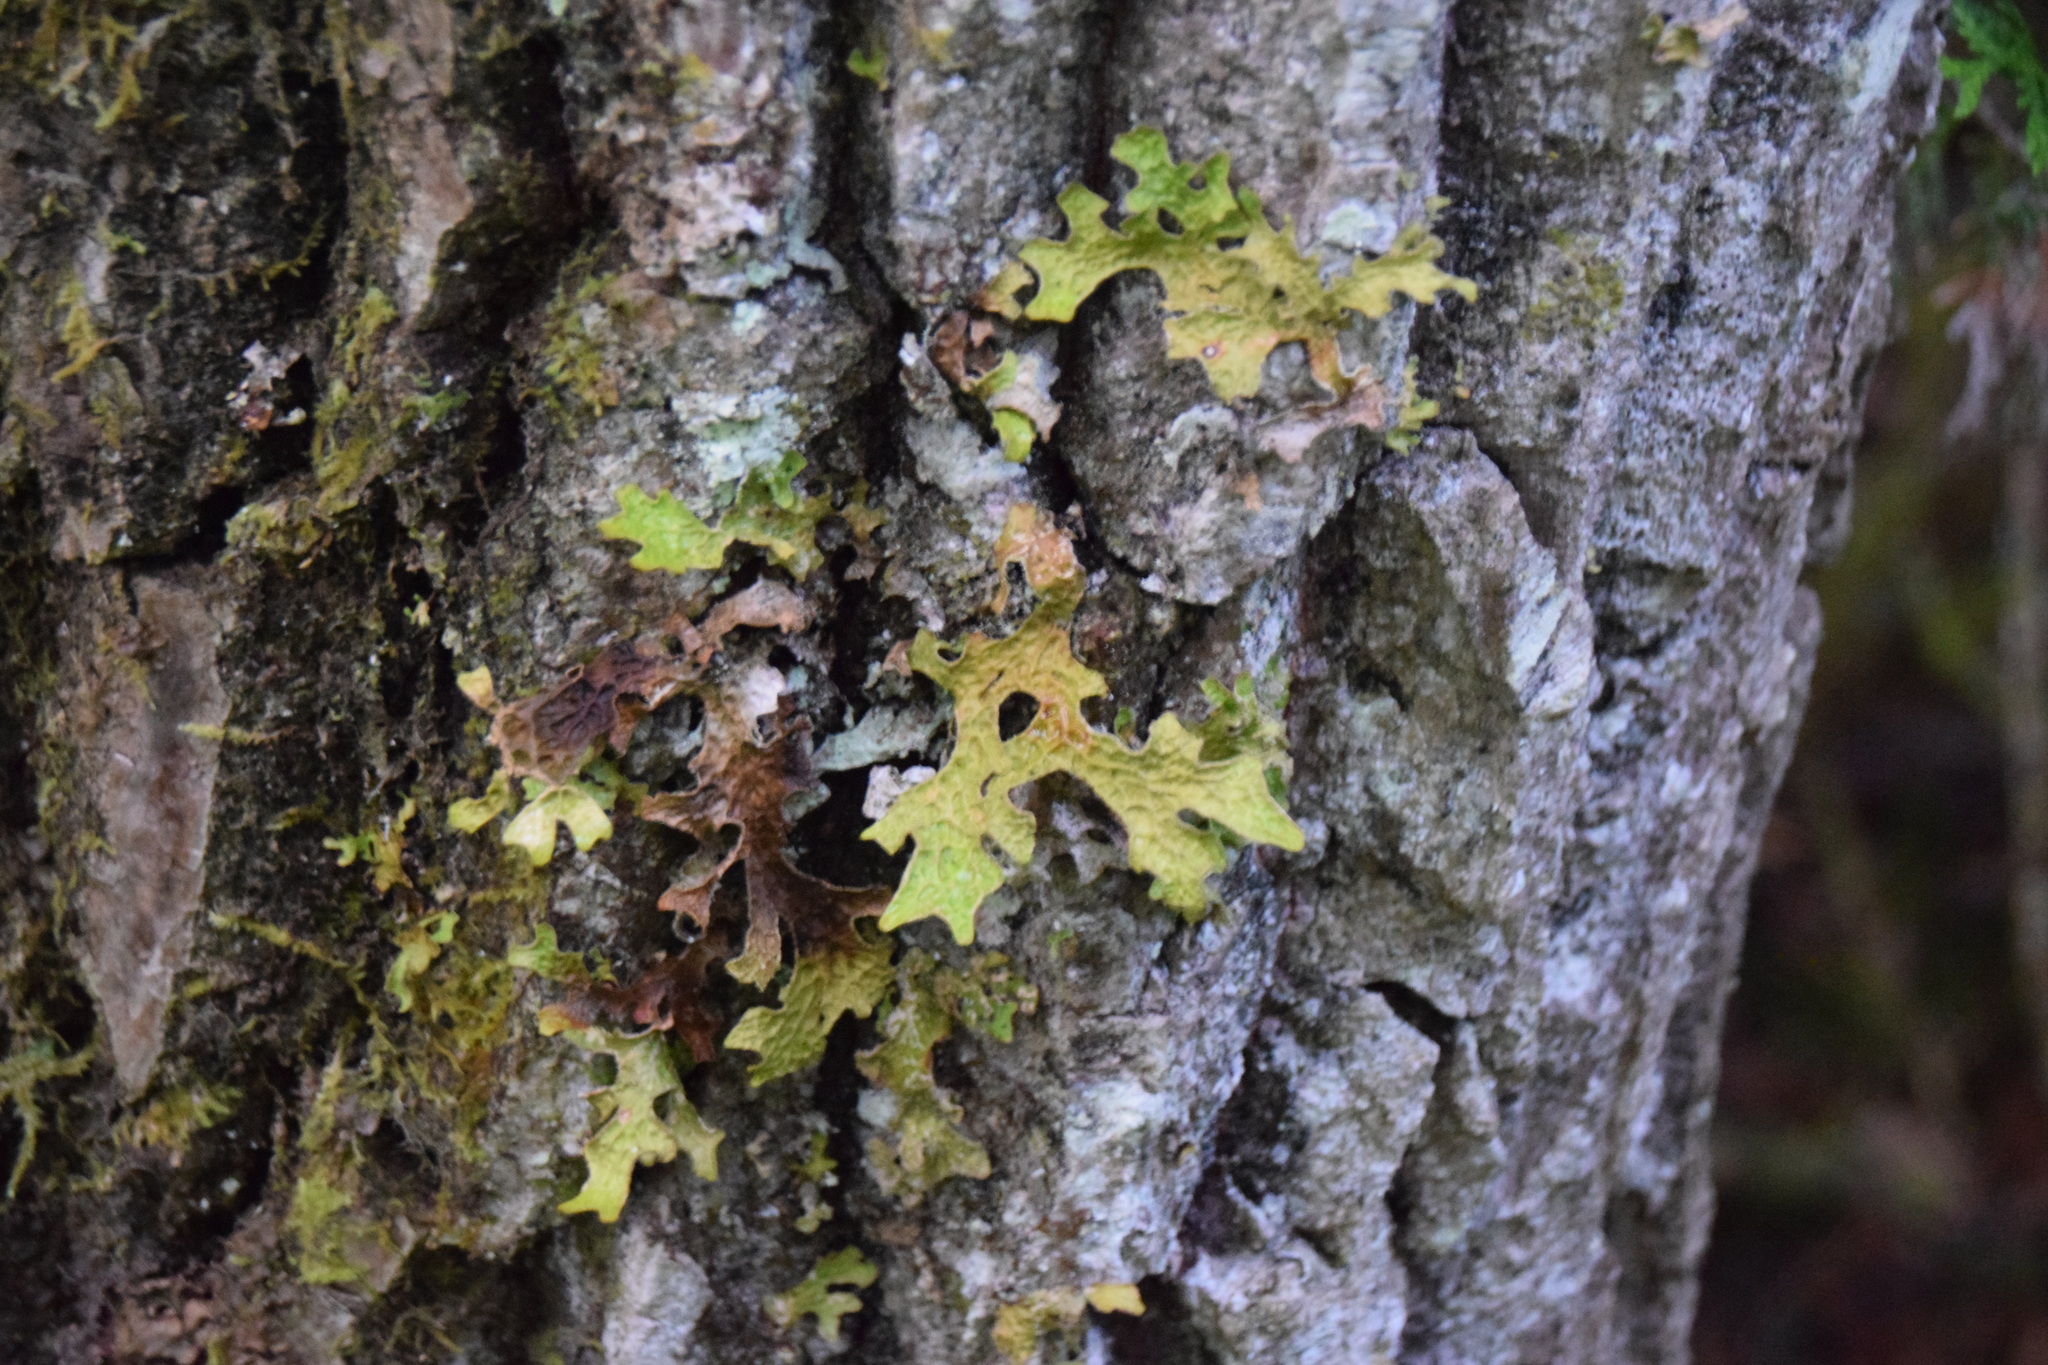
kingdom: Fungi
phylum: Ascomycota
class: Lecanoromycetes
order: Peltigerales
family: Lobariaceae
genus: Lobaria
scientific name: Lobaria pulmonaria
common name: Lungwort
